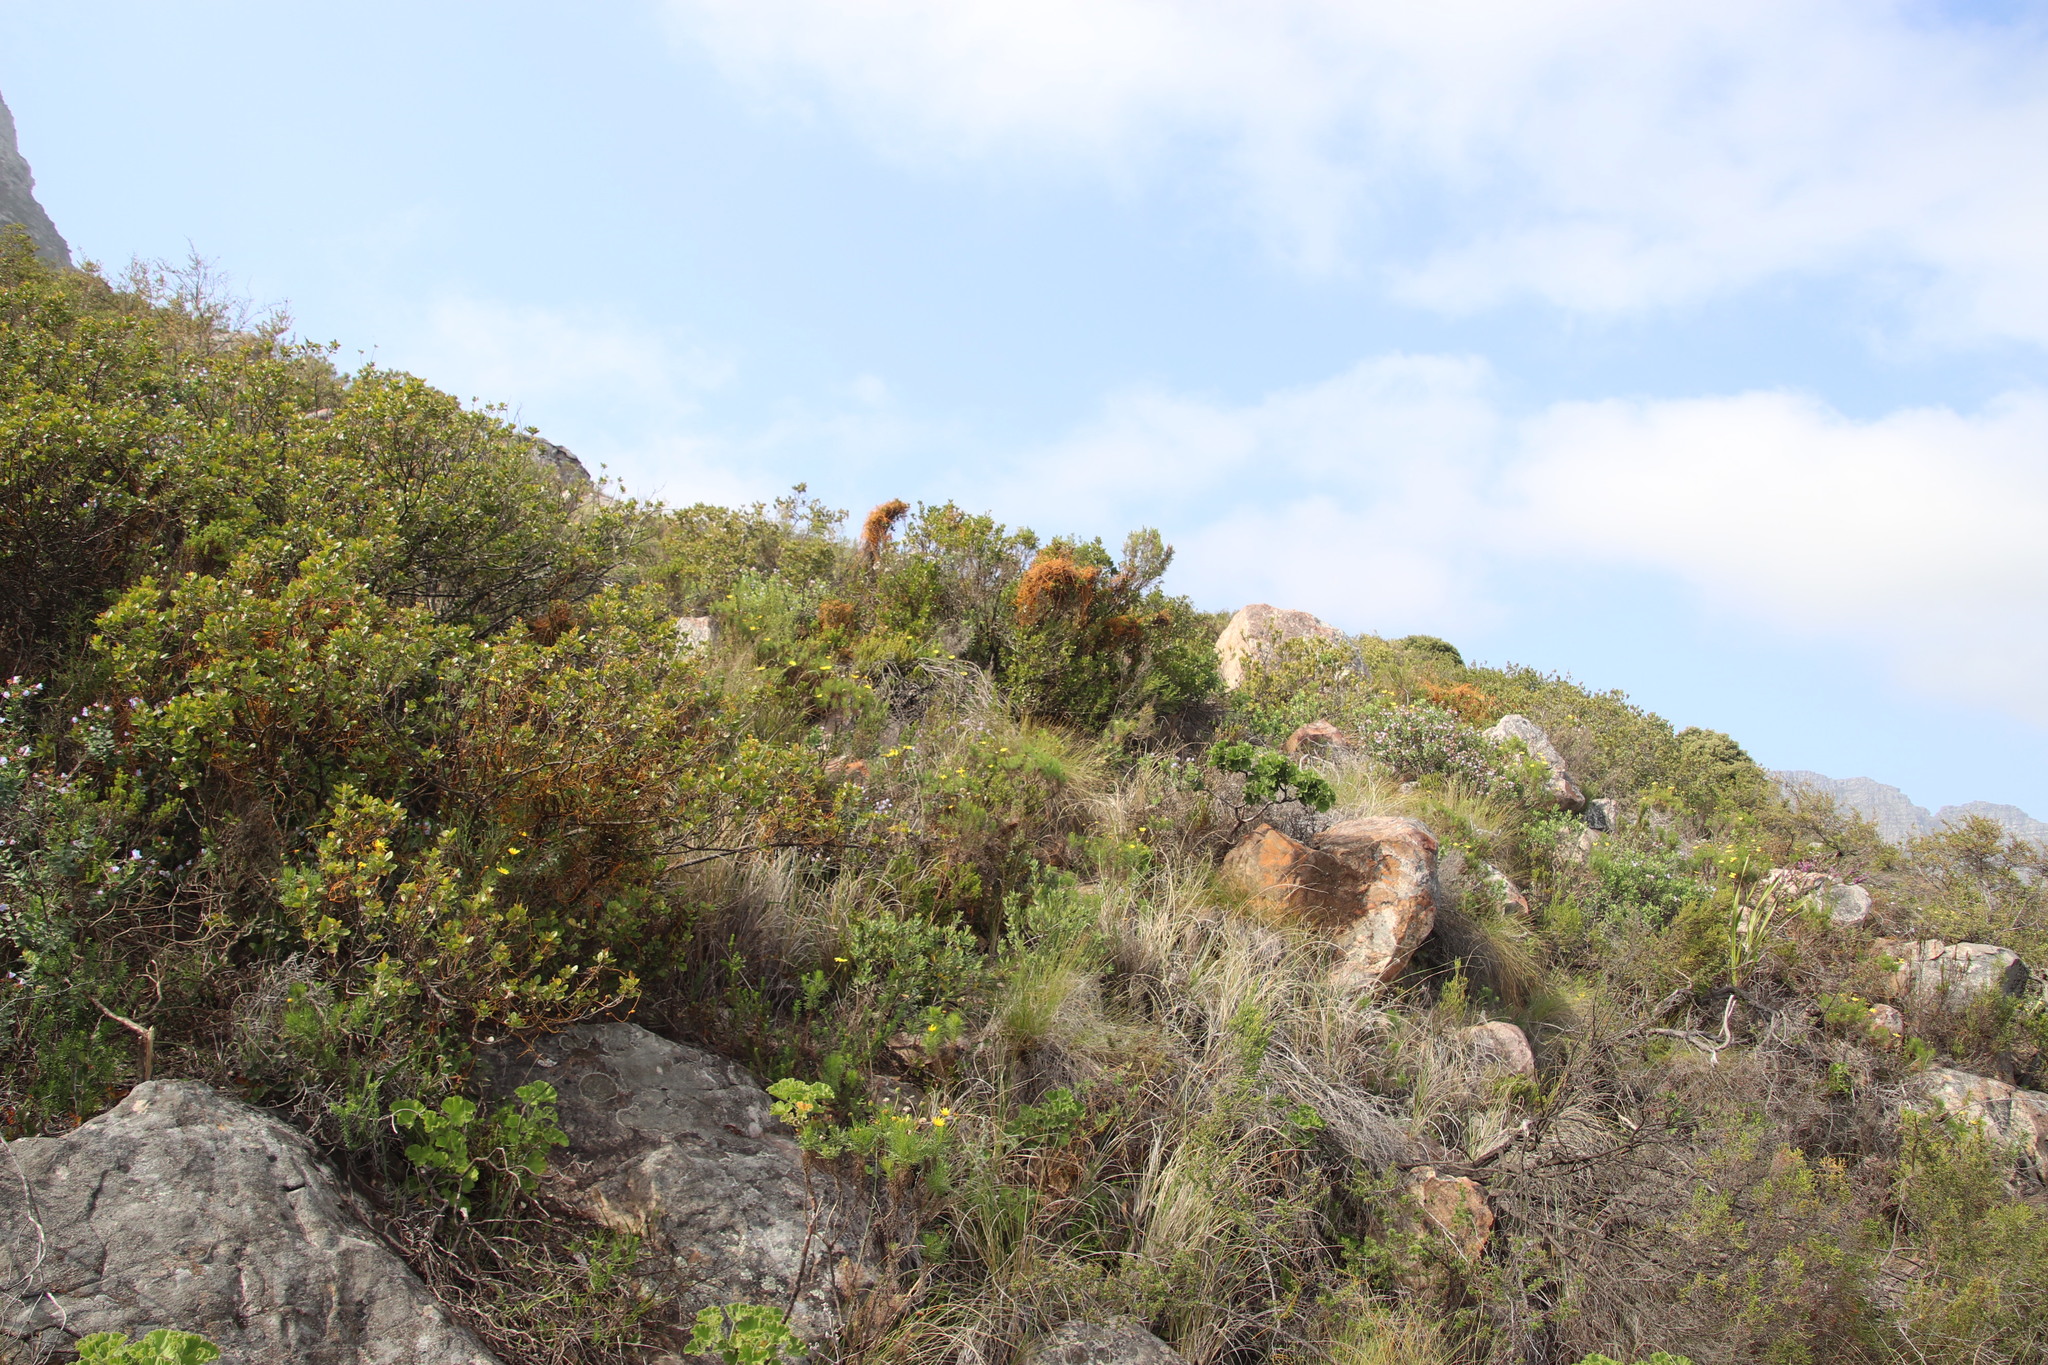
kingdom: Plantae
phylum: Tracheophyta
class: Magnoliopsida
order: Laurales
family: Lauraceae
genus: Cassytha
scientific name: Cassytha ciliolata
